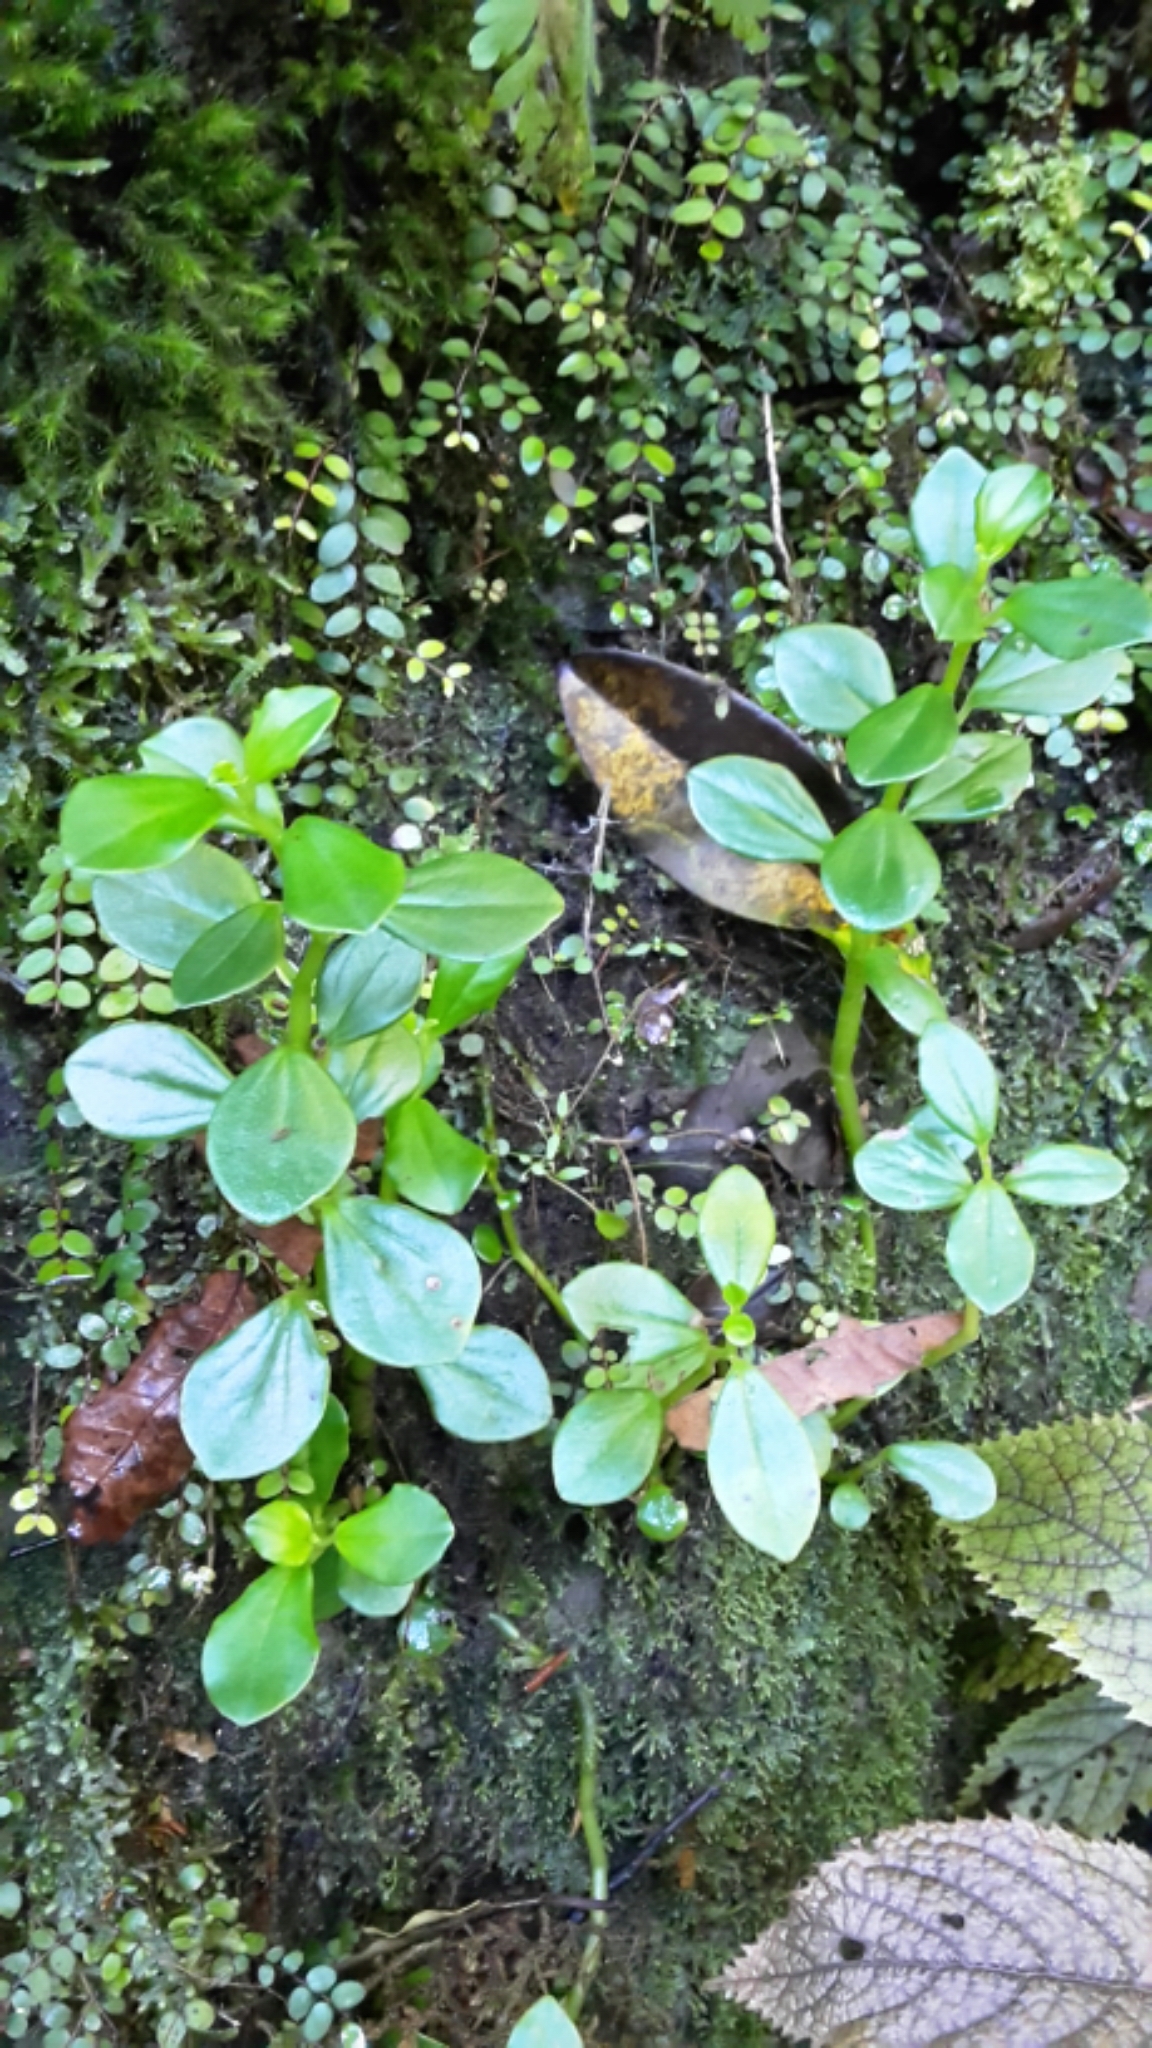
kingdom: Plantae
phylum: Tracheophyta
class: Magnoliopsida
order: Piperales
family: Piperaceae
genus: Peperomia
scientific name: Peperomia urvilleana
